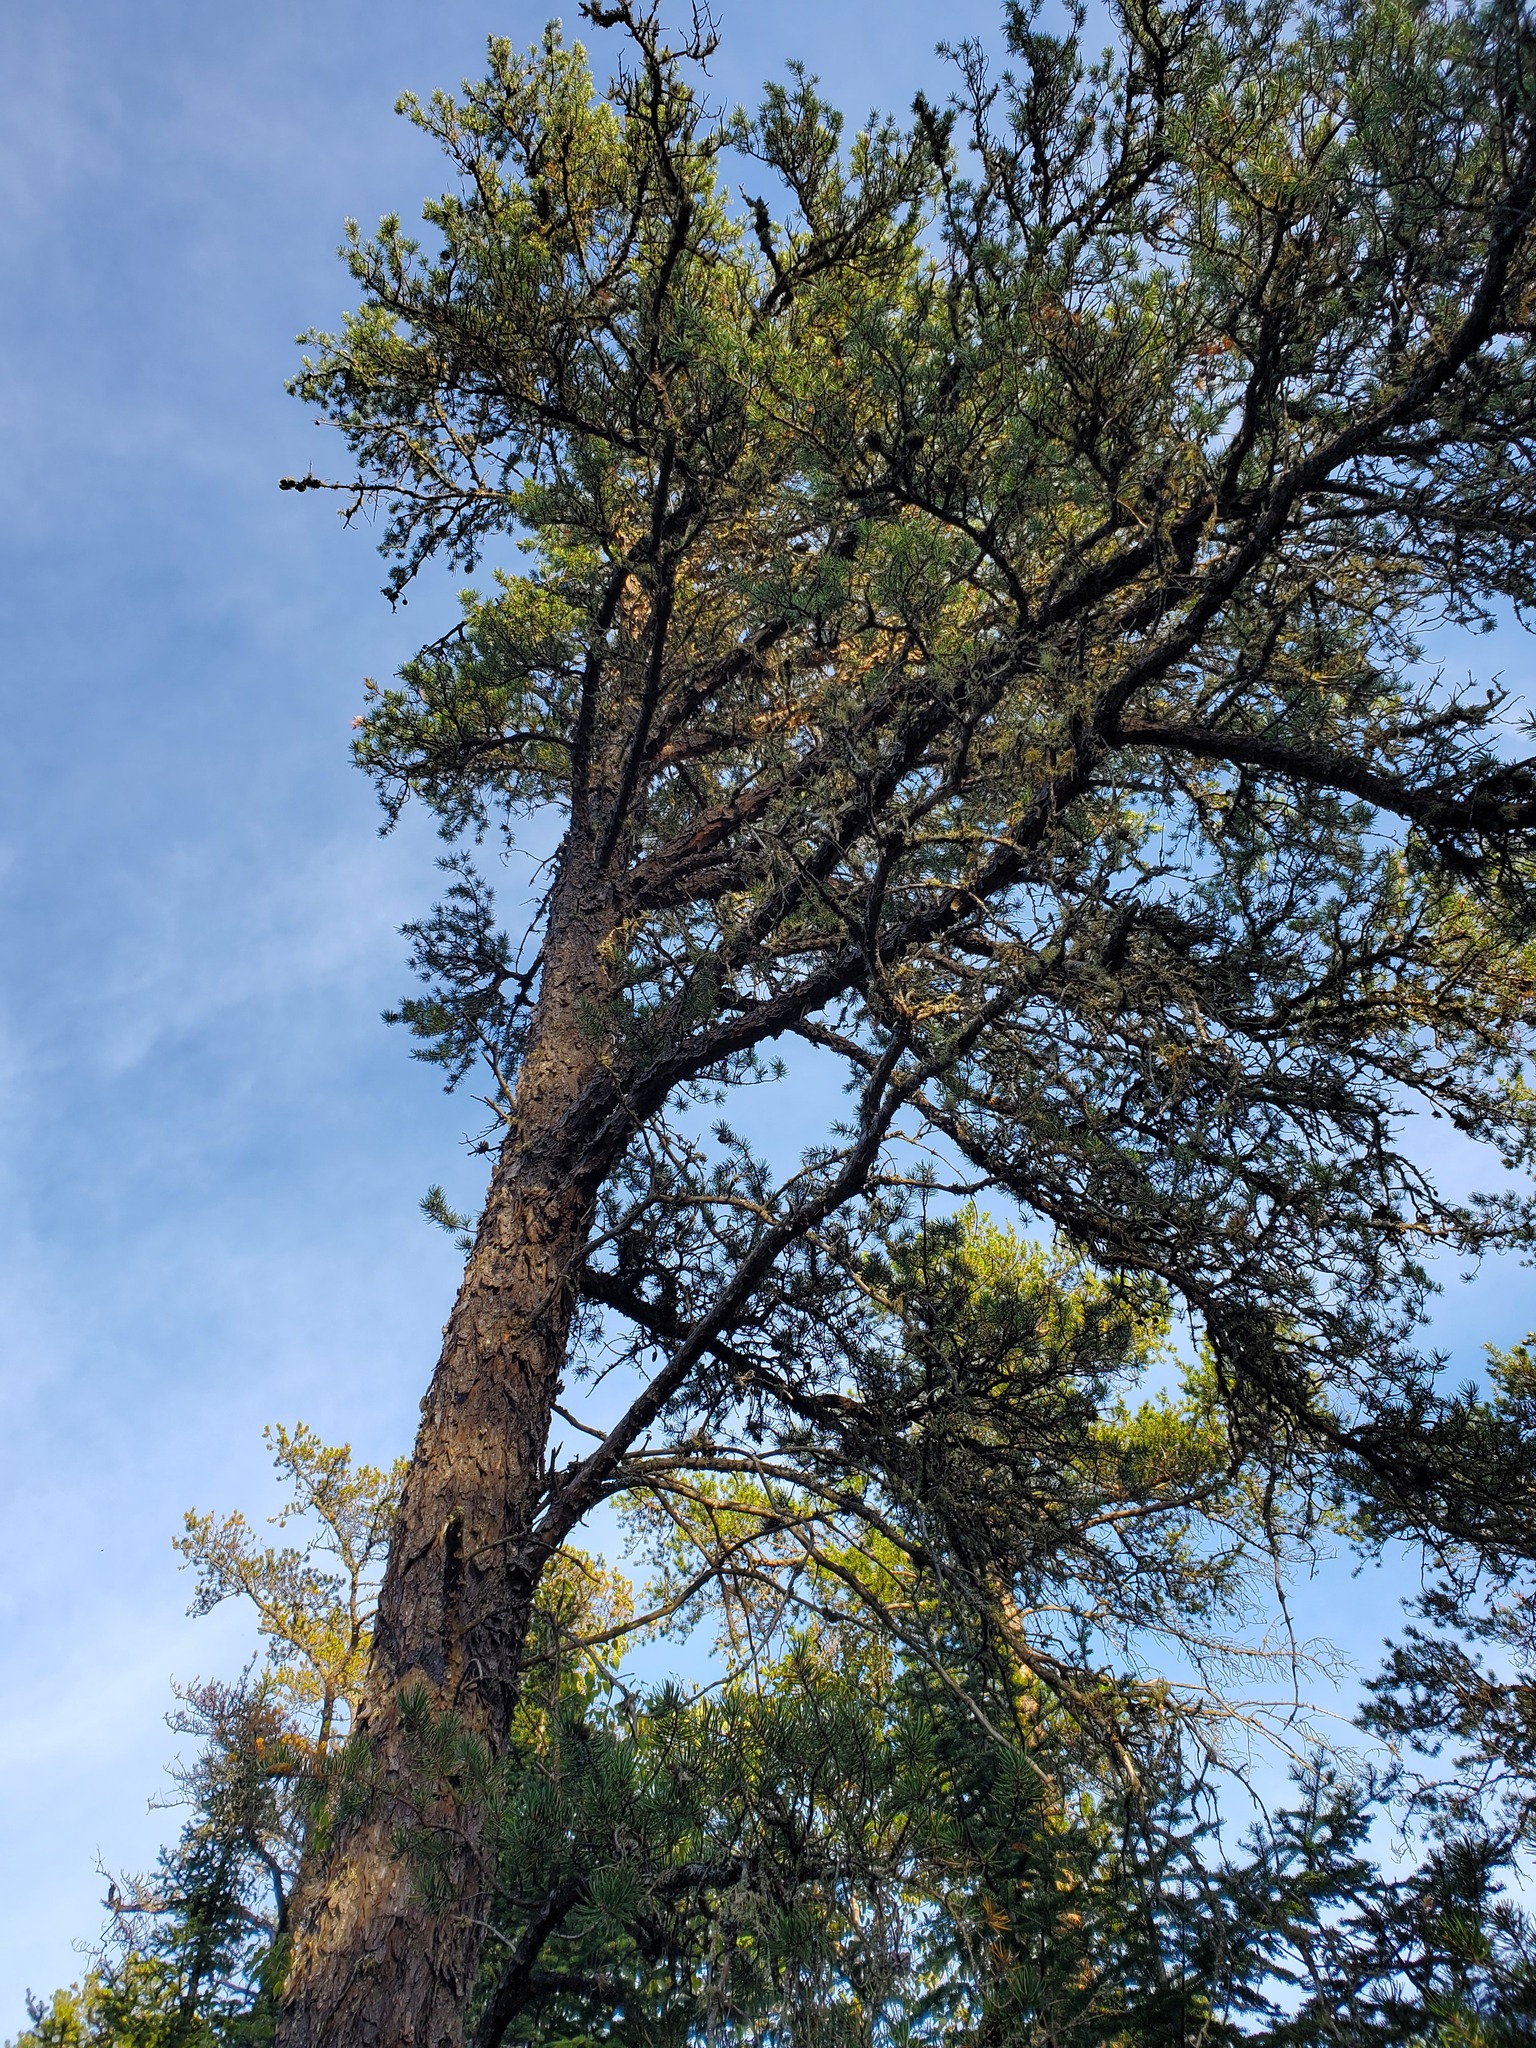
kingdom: Plantae
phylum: Tracheophyta
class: Pinopsida
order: Pinales
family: Pinaceae
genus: Pinus
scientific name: Pinus banksiana
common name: Jack pine
